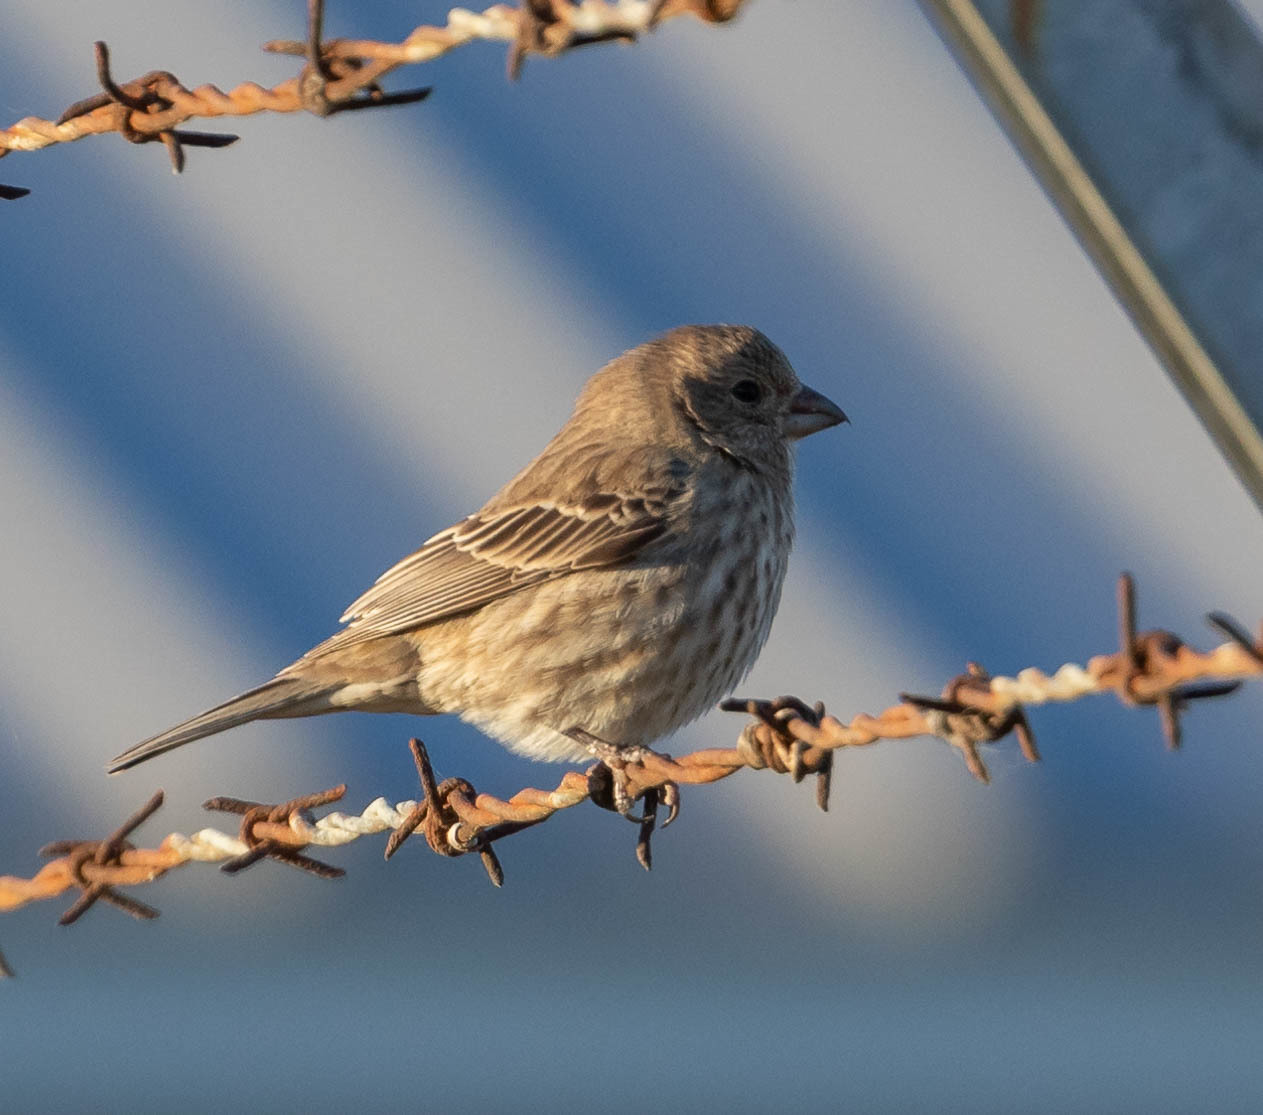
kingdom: Animalia
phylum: Chordata
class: Aves
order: Passeriformes
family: Fringillidae
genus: Haemorhous
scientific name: Haemorhous mexicanus
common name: House finch
